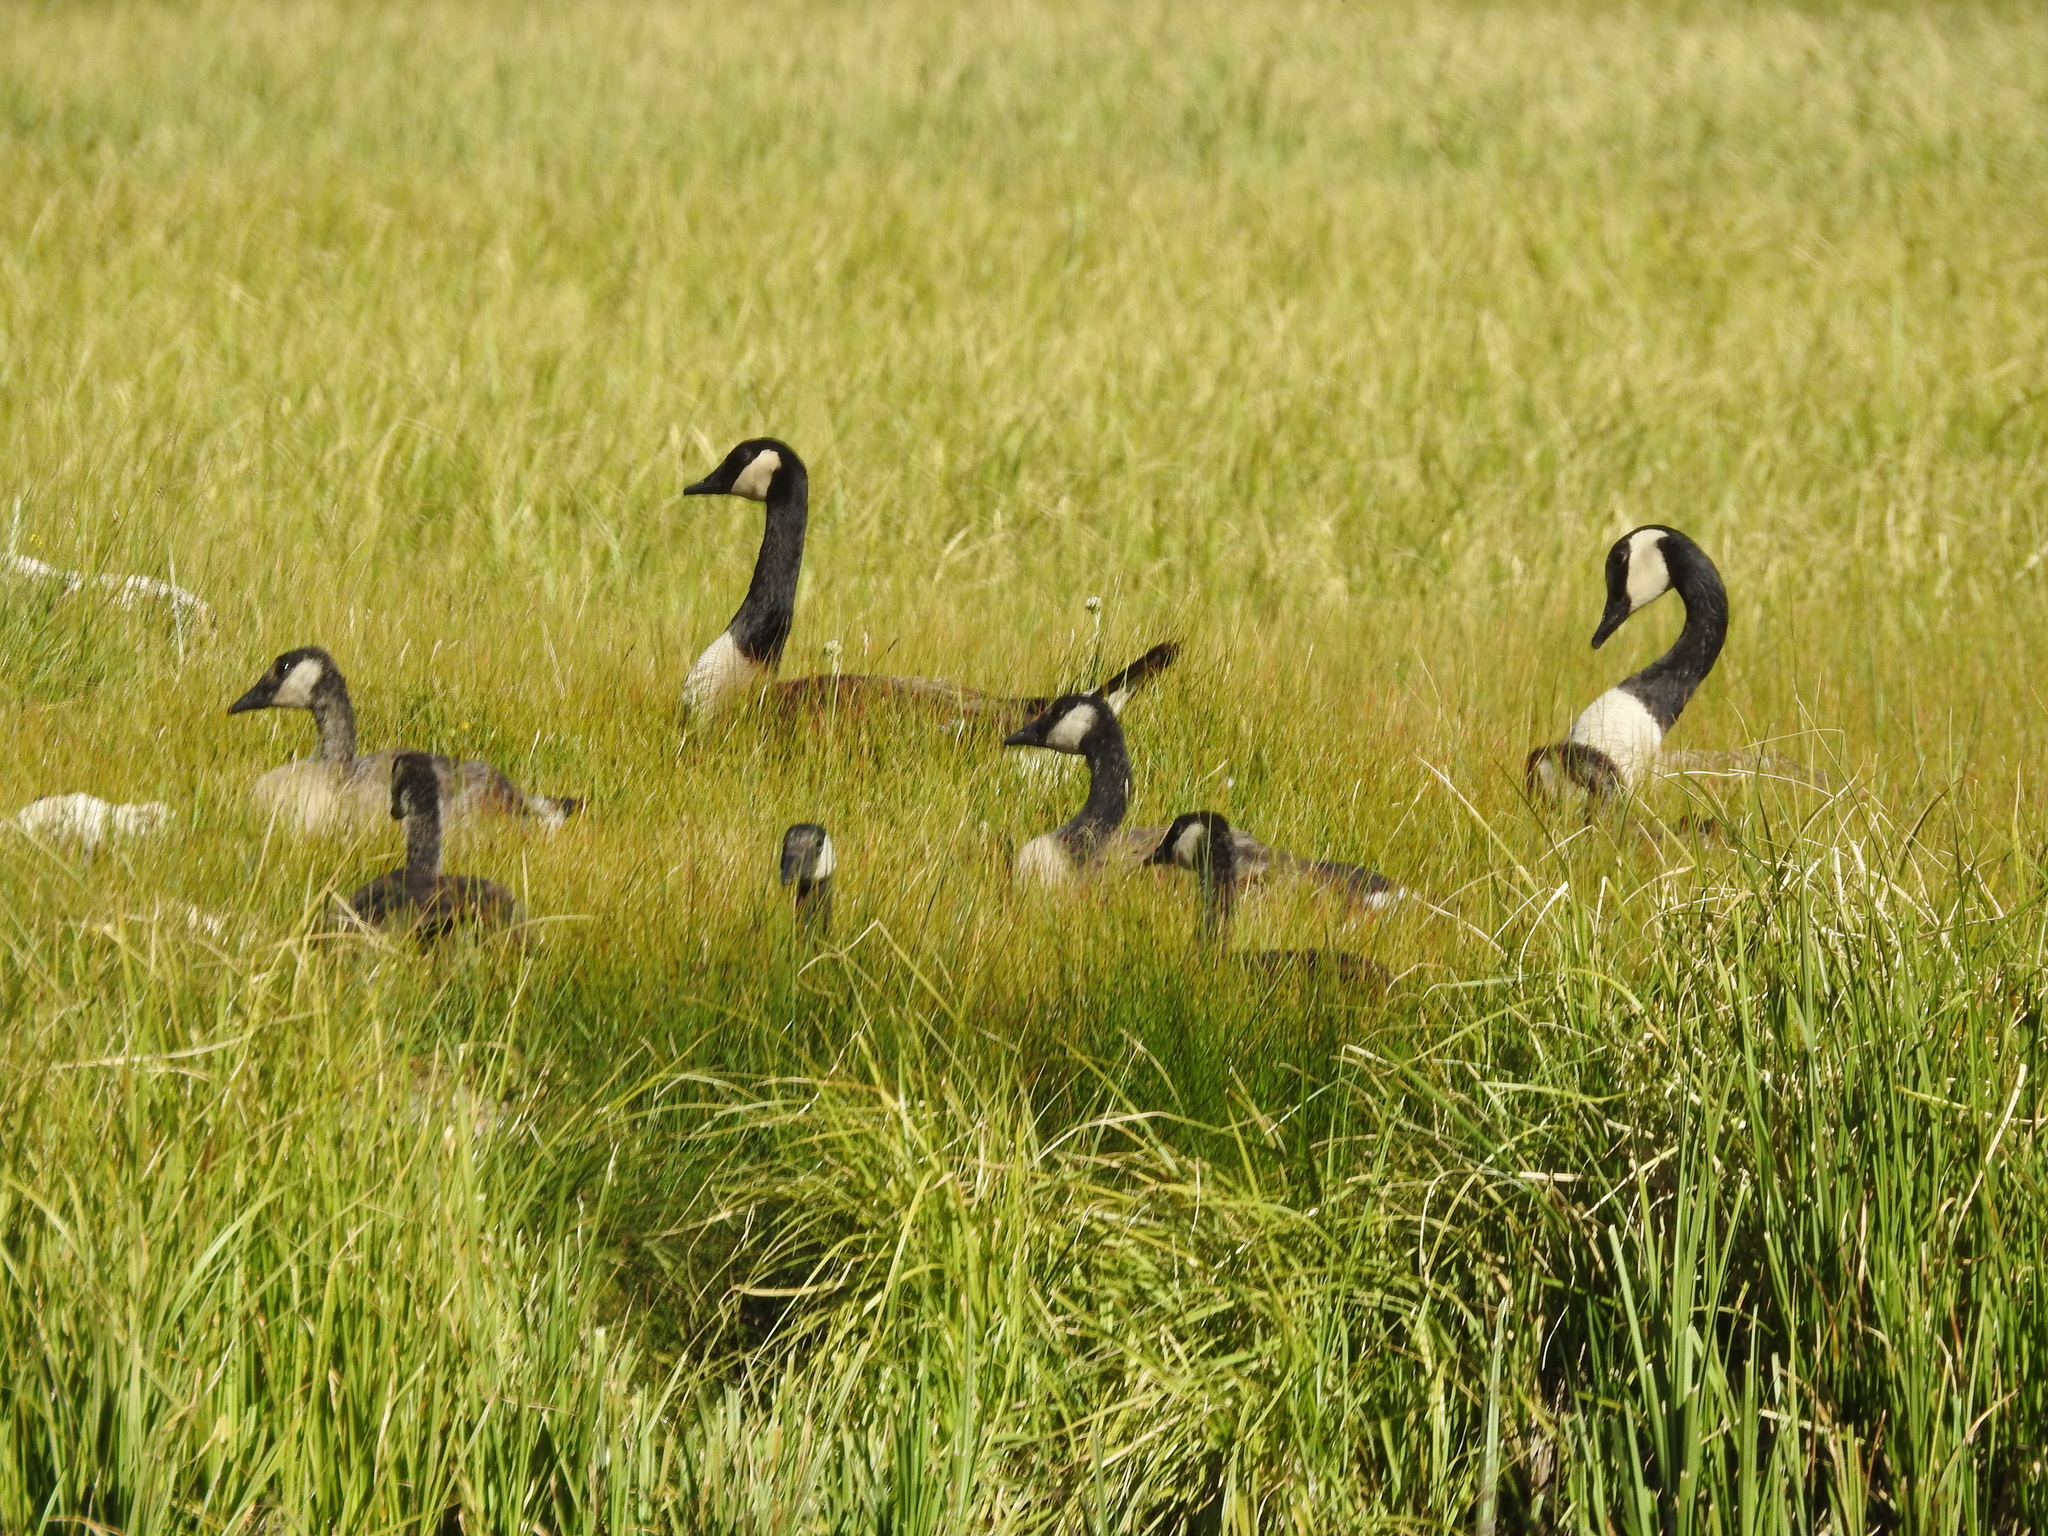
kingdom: Animalia
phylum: Chordata
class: Aves
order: Anseriformes
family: Anatidae
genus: Branta
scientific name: Branta canadensis
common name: Canada goose
